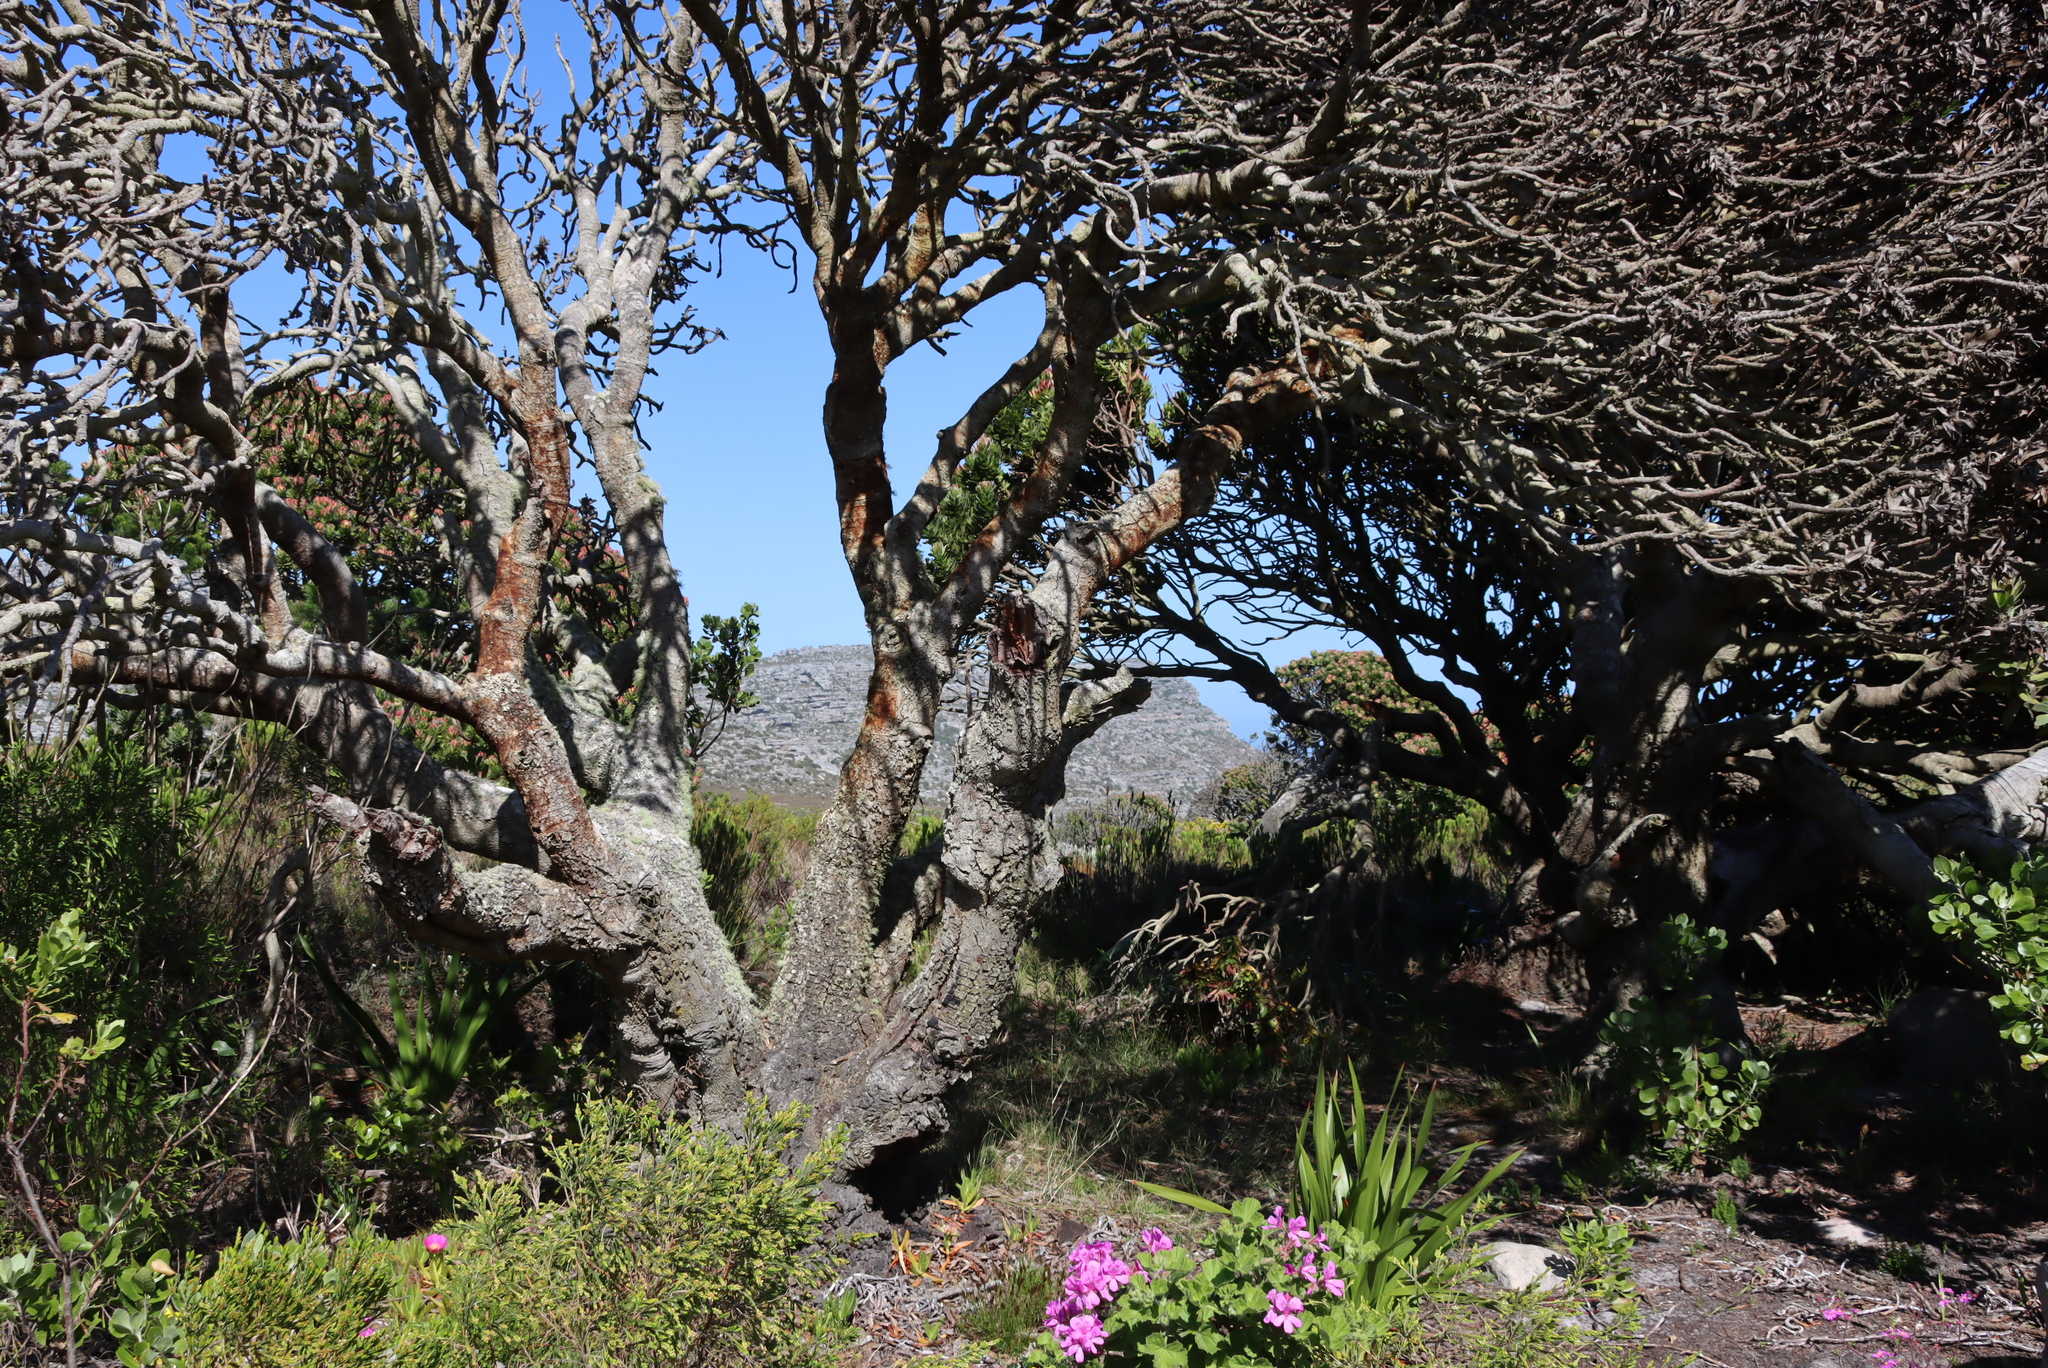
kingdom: Plantae
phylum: Tracheophyta
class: Magnoliopsida
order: Proteales
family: Proteaceae
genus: Mimetes
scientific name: Mimetes fimbriifolius
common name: Fringed bottlebrush
